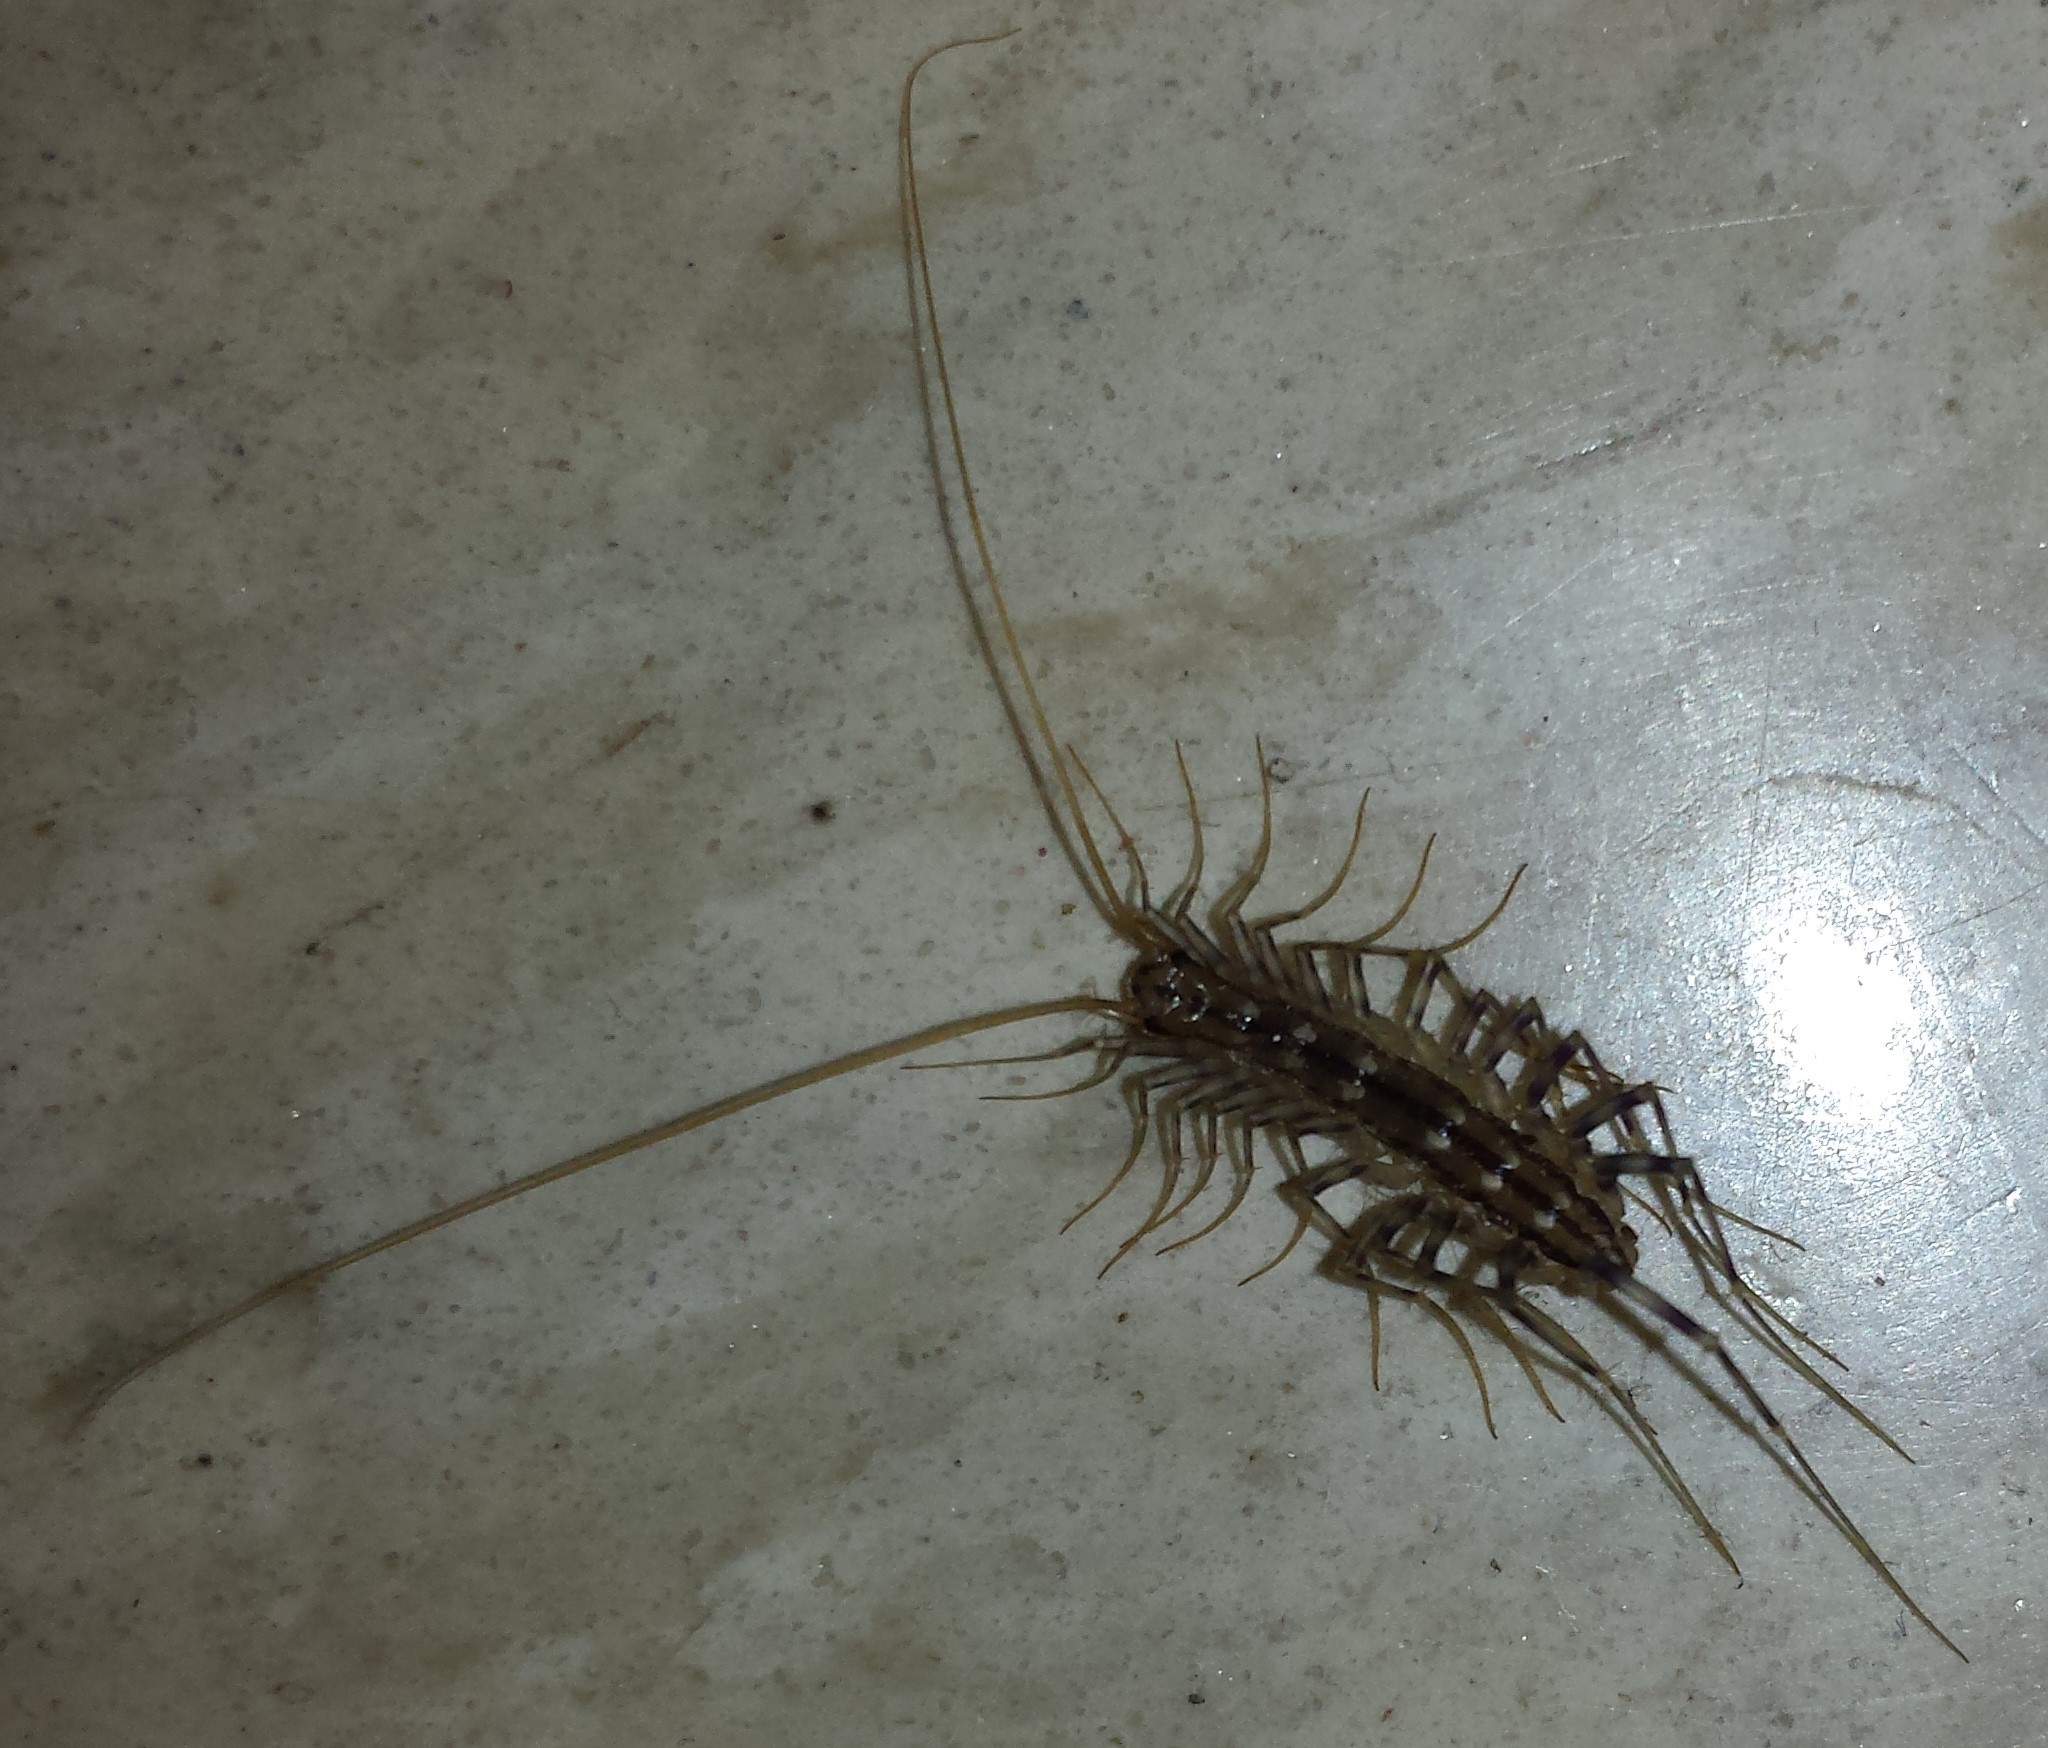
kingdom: Animalia
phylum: Arthropoda
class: Chilopoda
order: Scutigeromorpha
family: Scutigeridae
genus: Scutigera
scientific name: Scutigera coleoptrata
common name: House centipede
